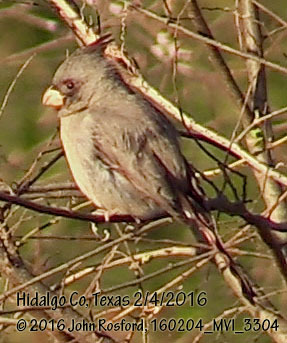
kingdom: Animalia
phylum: Chordata
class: Aves
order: Passeriformes
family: Cardinalidae
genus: Cardinalis
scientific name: Cardinalis sinuatus
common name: Pyrrhuloxia
